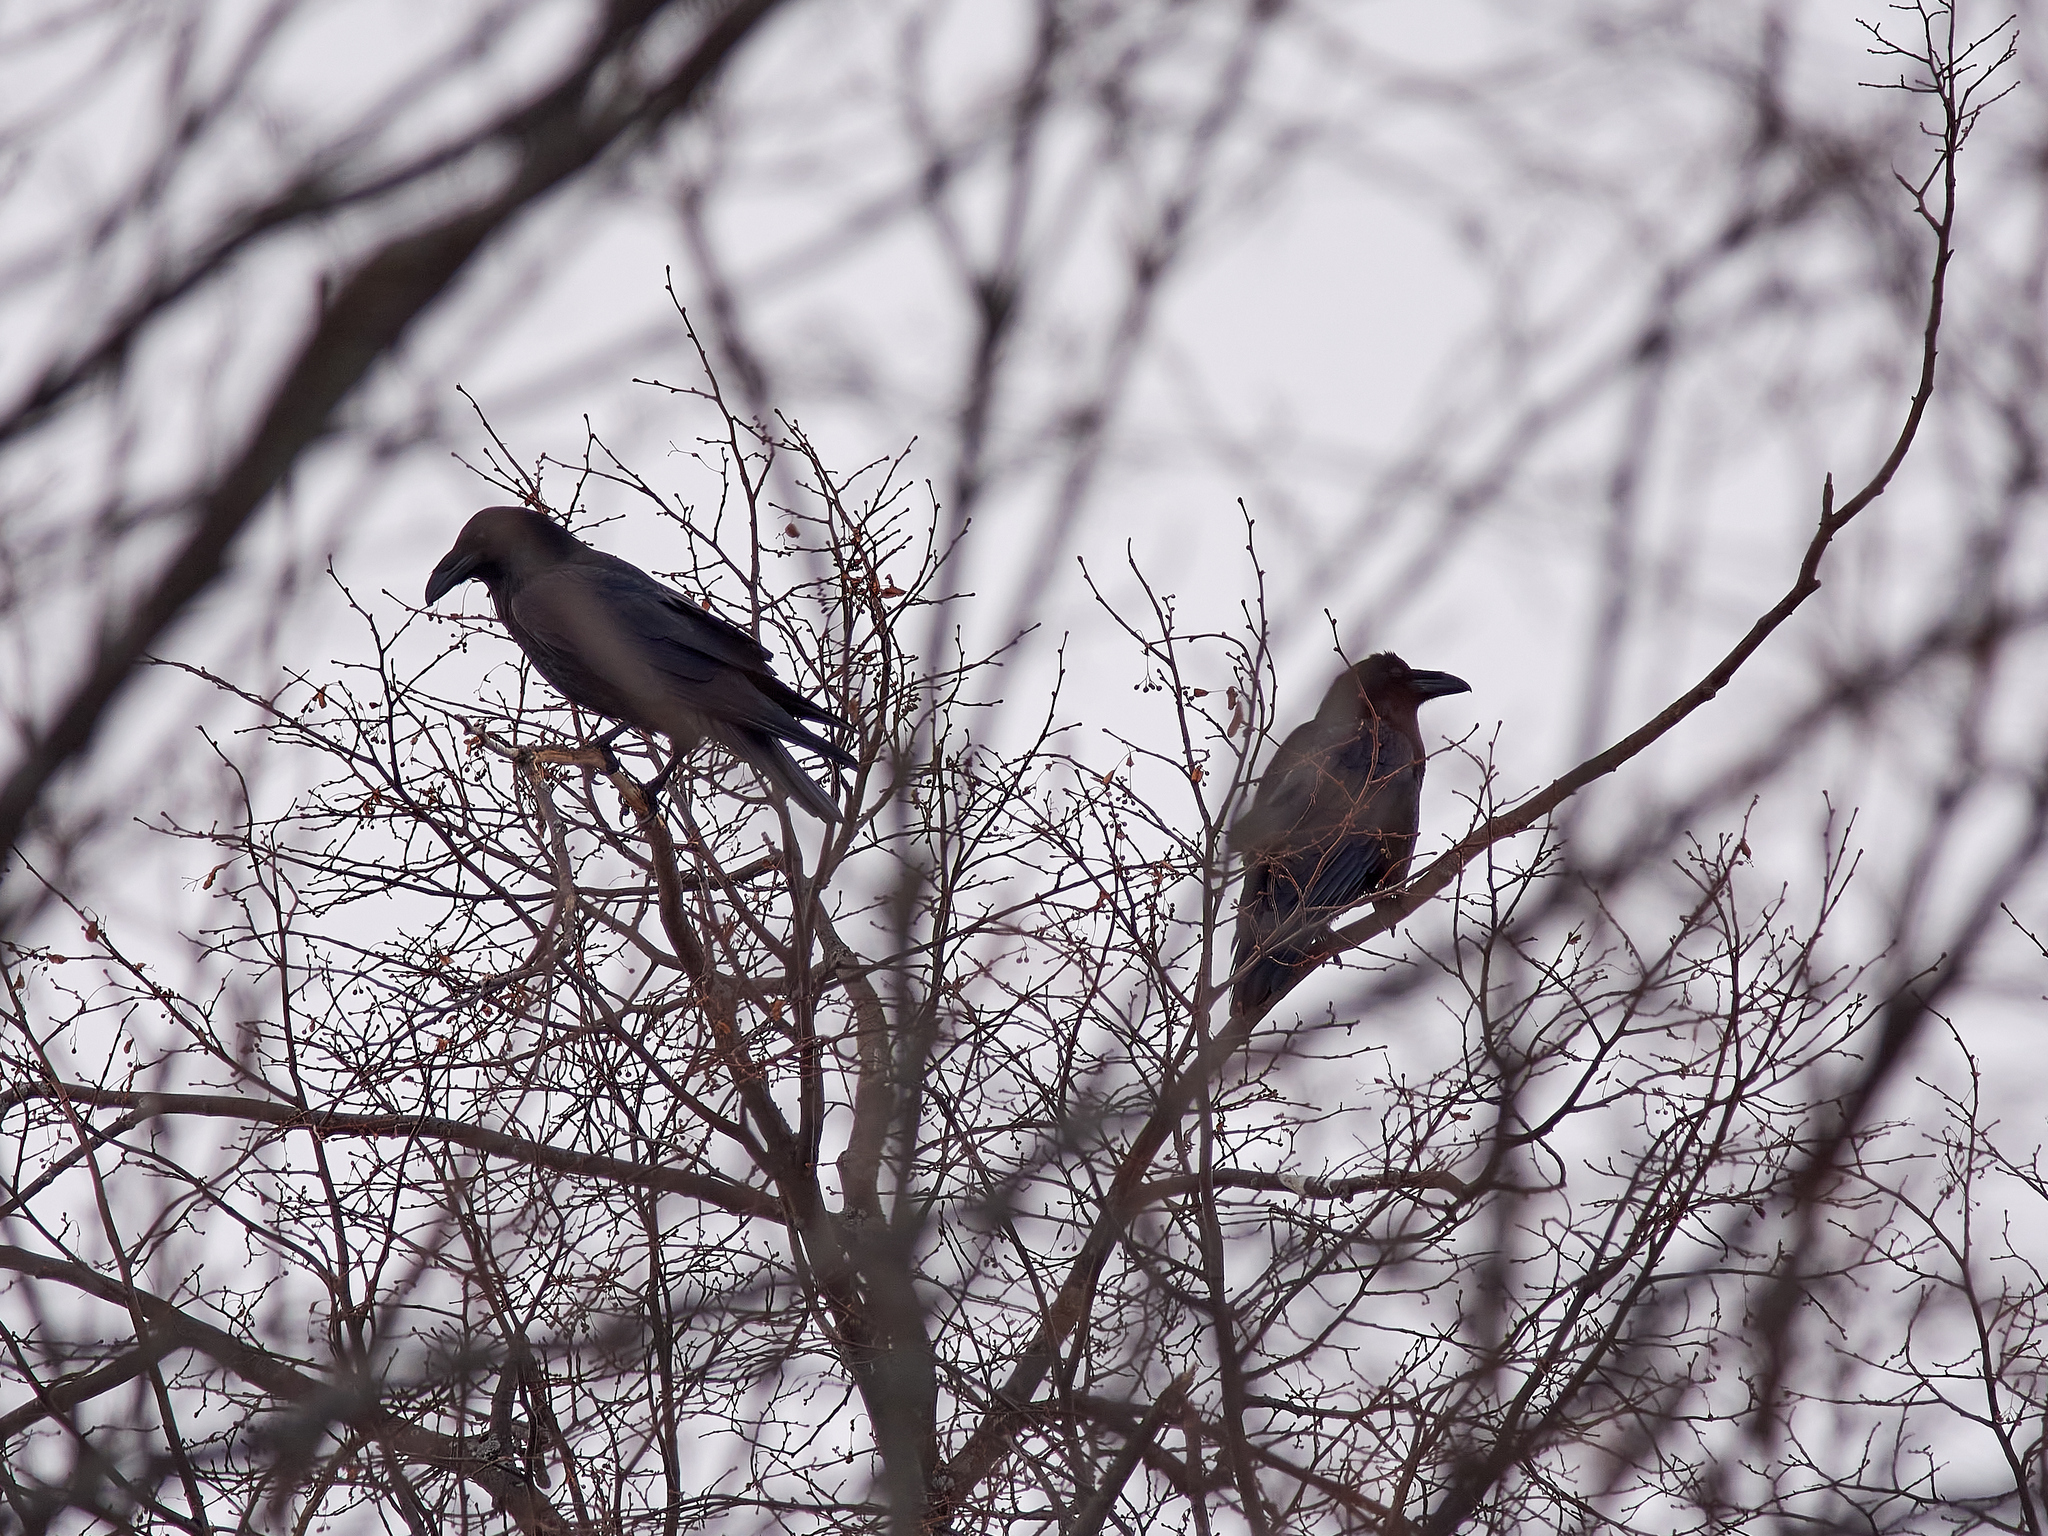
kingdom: Animalia
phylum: Chordata
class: Aves
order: Passeriformes
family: Corvidae
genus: Corvus
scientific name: Corvus corax
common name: Common raven
